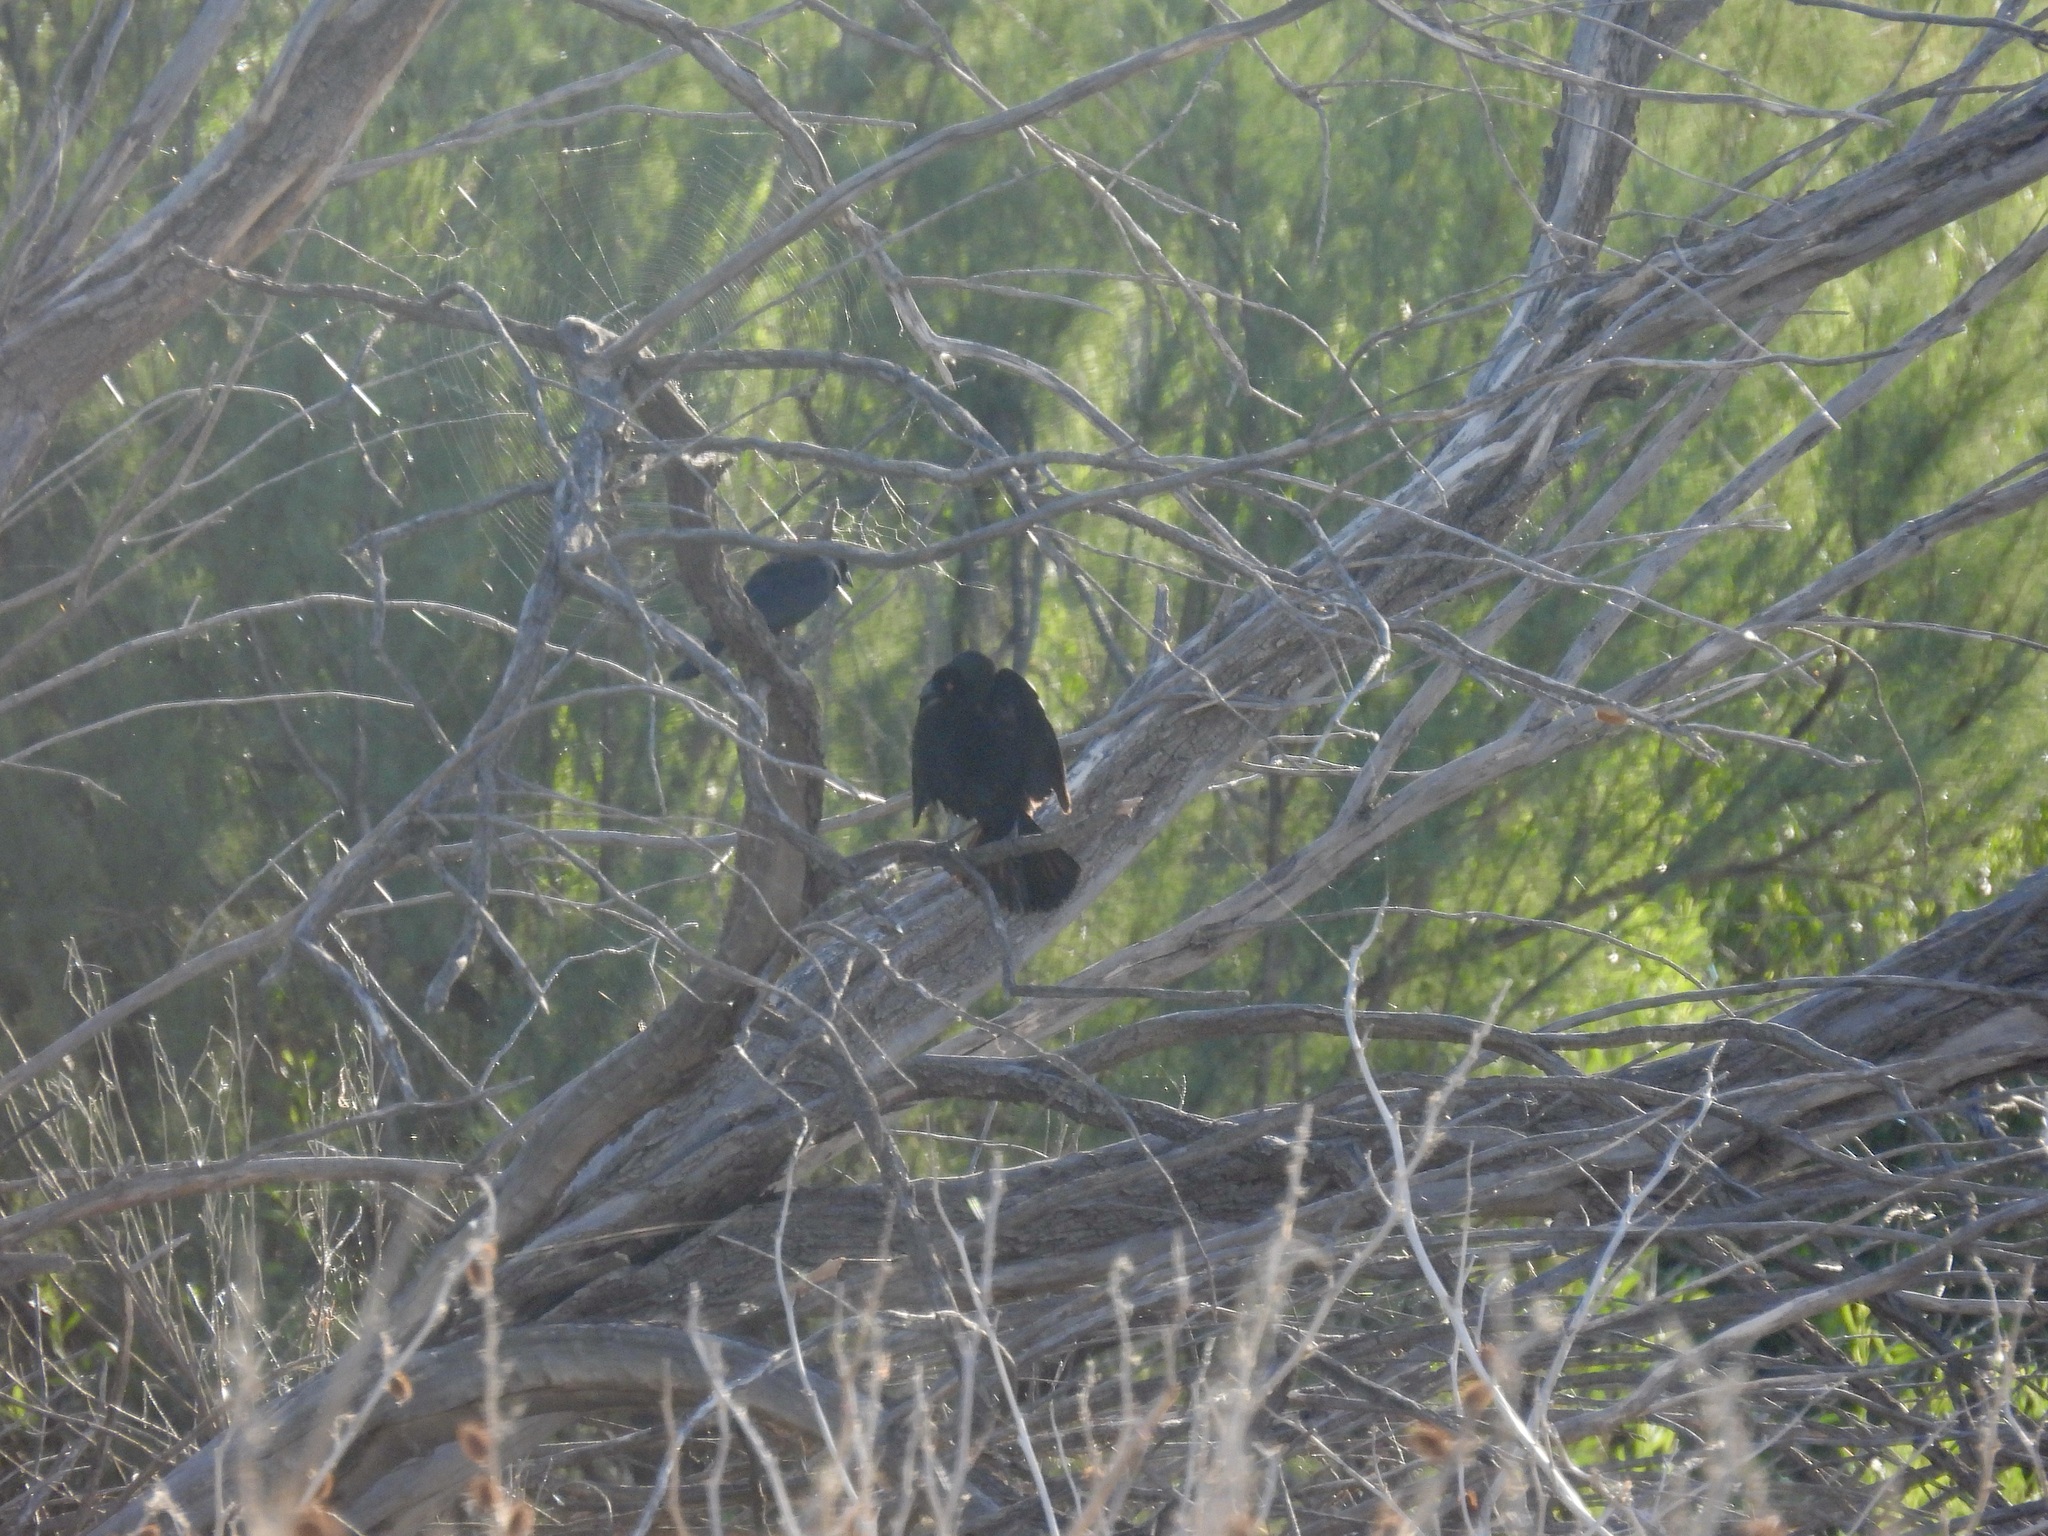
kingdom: Animalia
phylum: Chordata
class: Aves
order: Passeriformes
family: Icteridae
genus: Molothrus
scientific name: Molothrus aeneus
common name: Bronzed cowbird
